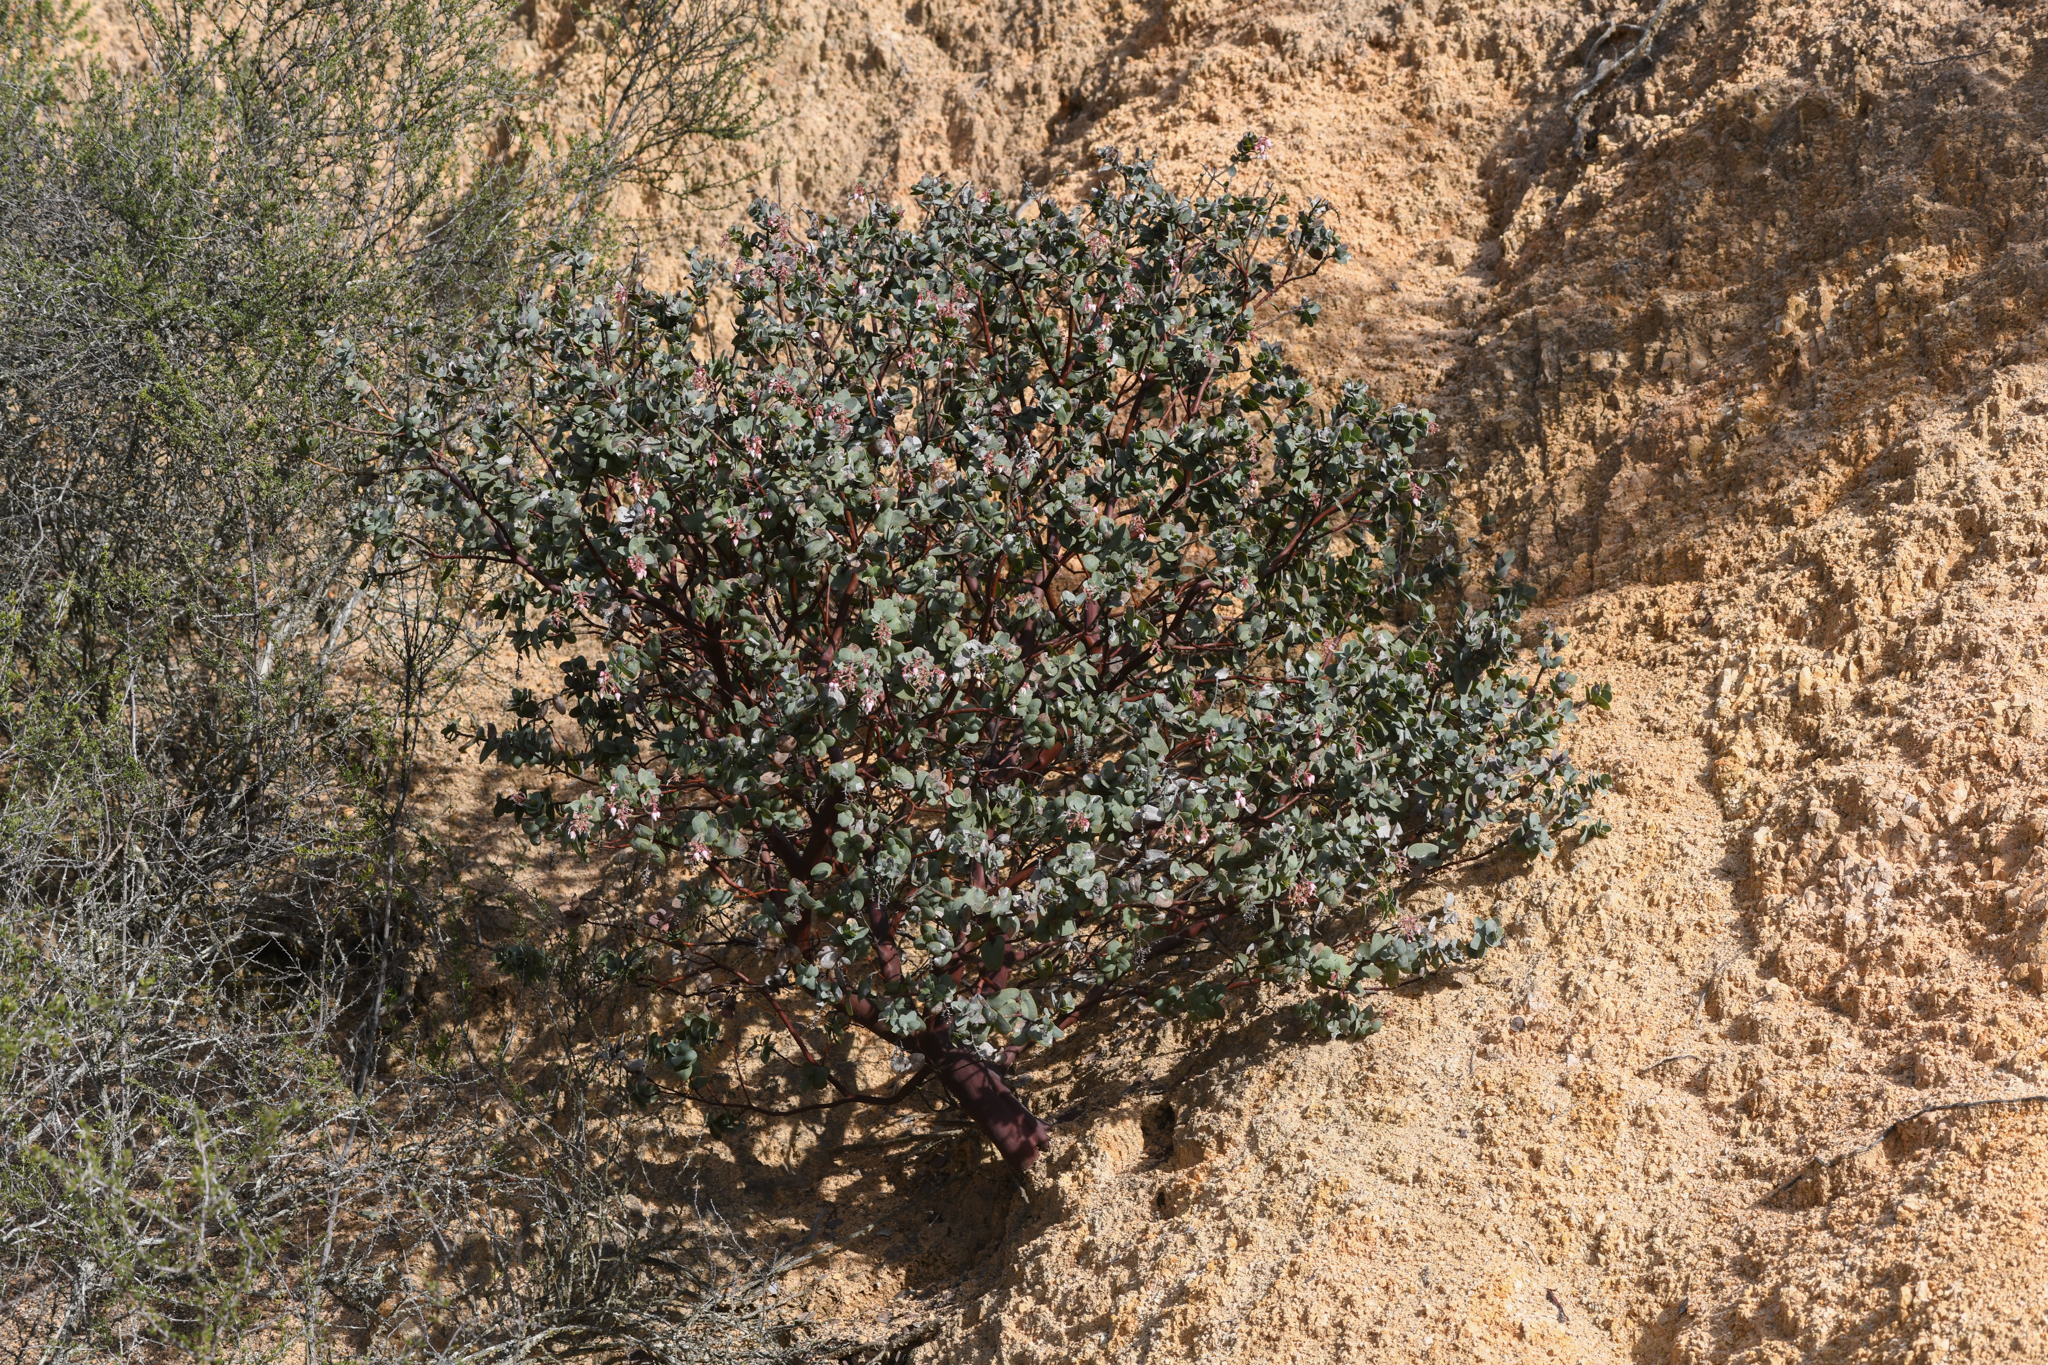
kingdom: Plantae
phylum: Tracheophyta
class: Magnoliopsida
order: Ericales
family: Ericaceae
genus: Arctostaphylos
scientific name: Arctostaphylos gabilanensis
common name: Gabilan manzanita
